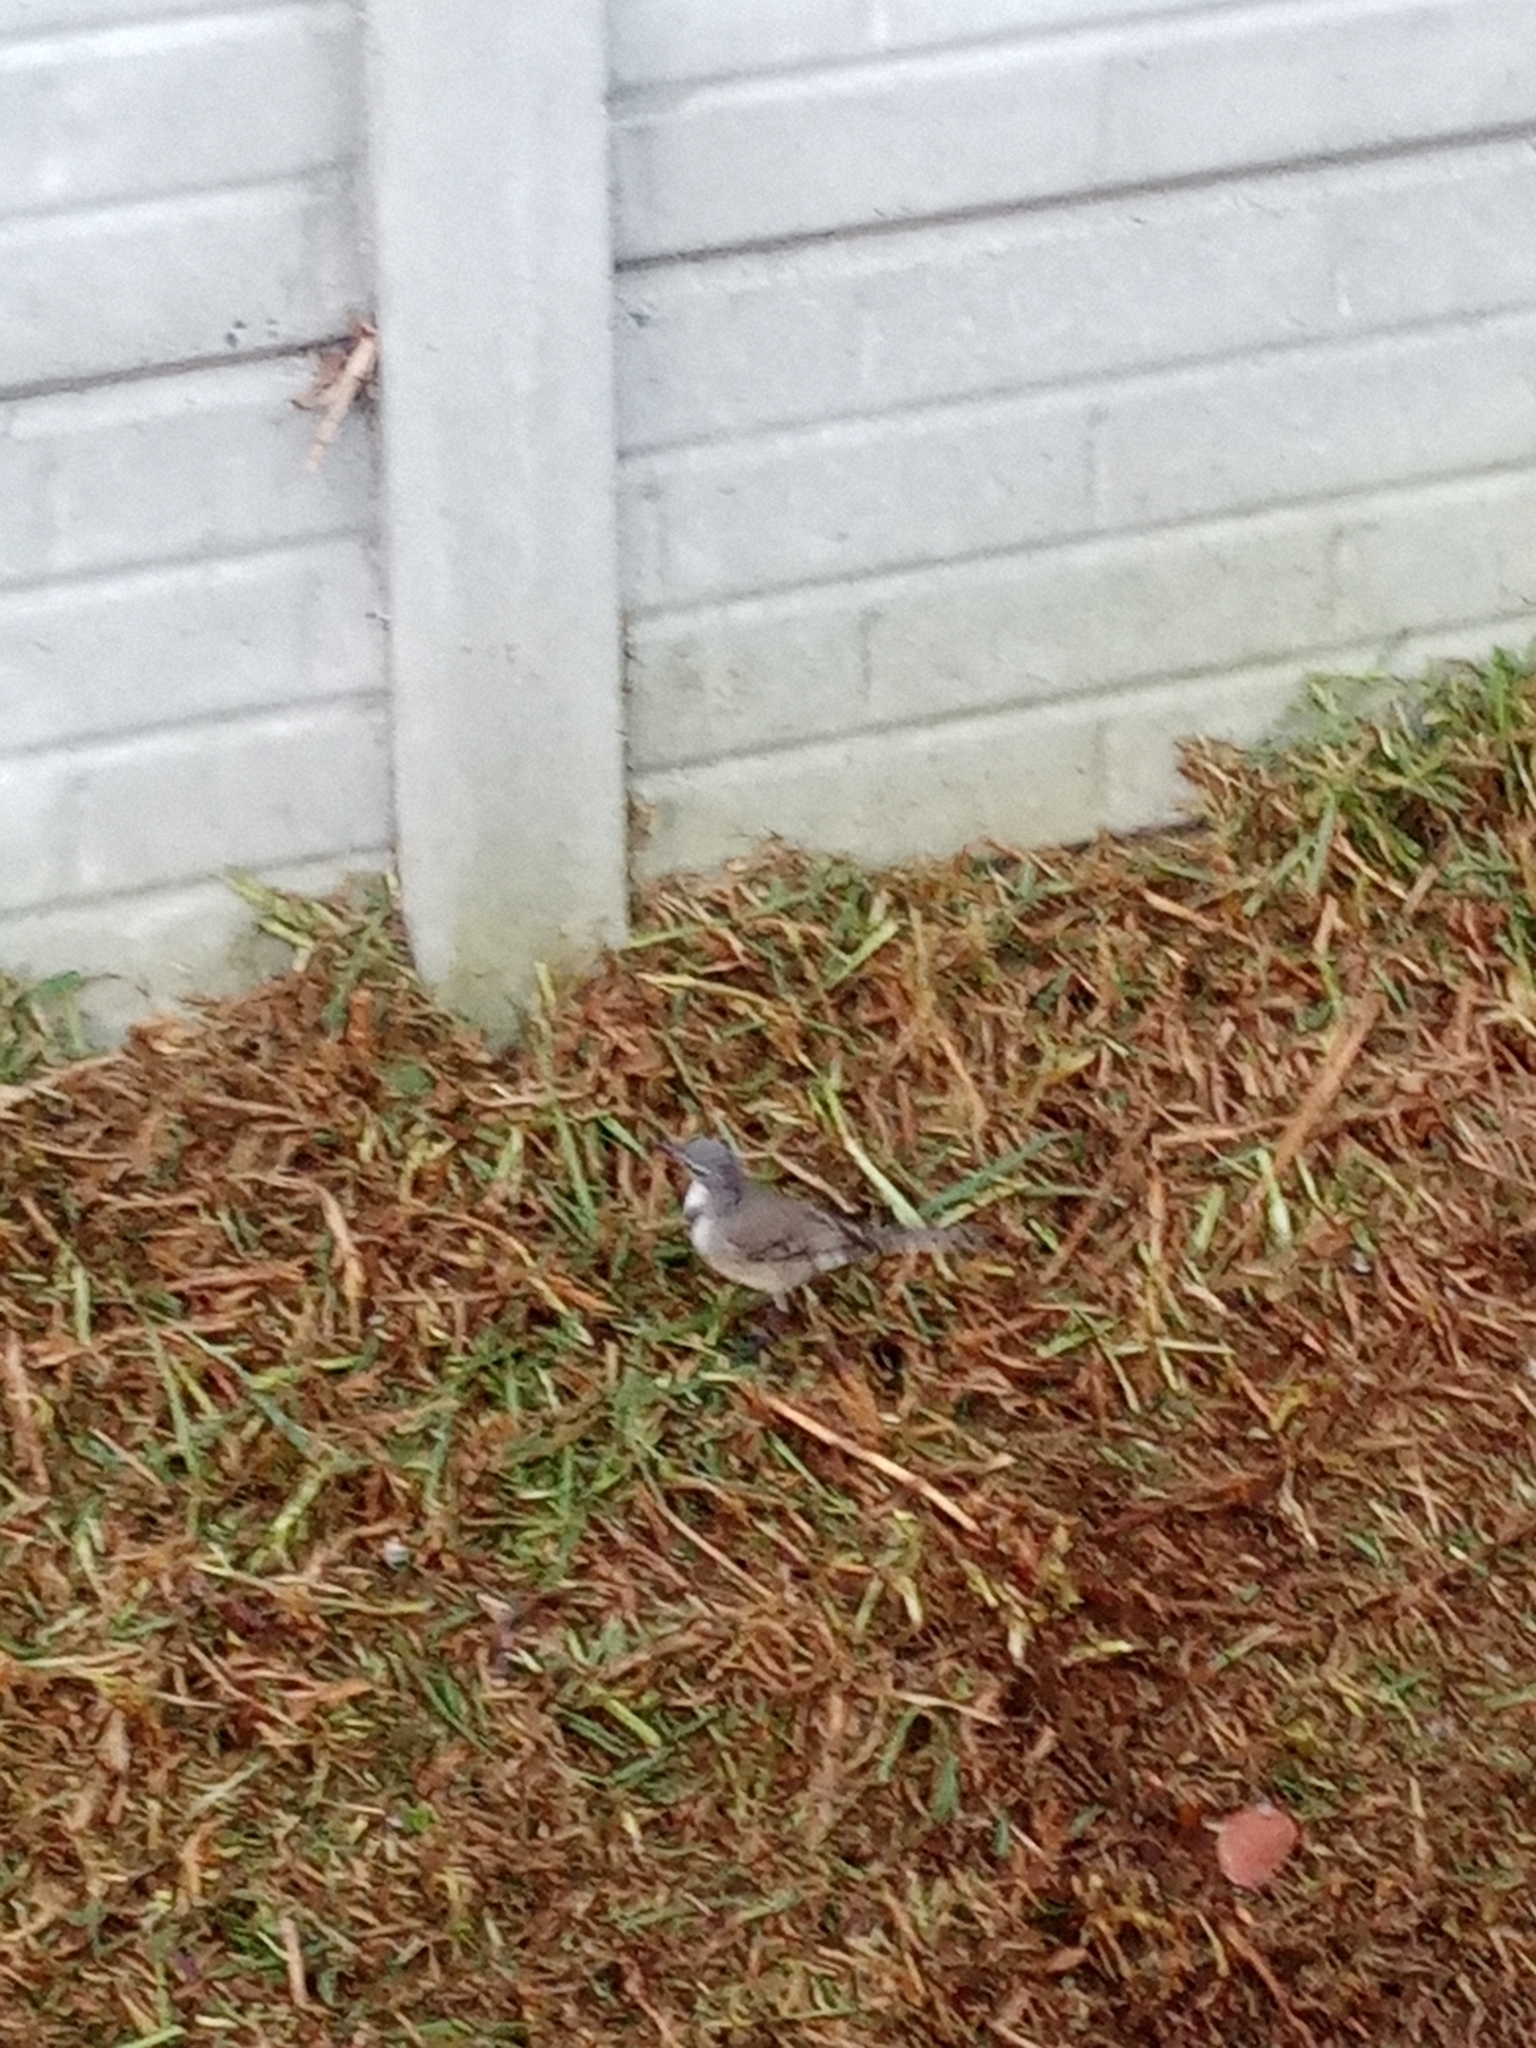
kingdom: Animalia
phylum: Chordata
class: Aves
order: Passeriformes
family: Motacillidae
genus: Motacilla
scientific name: Motacilla capensis
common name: Cape wagtail
